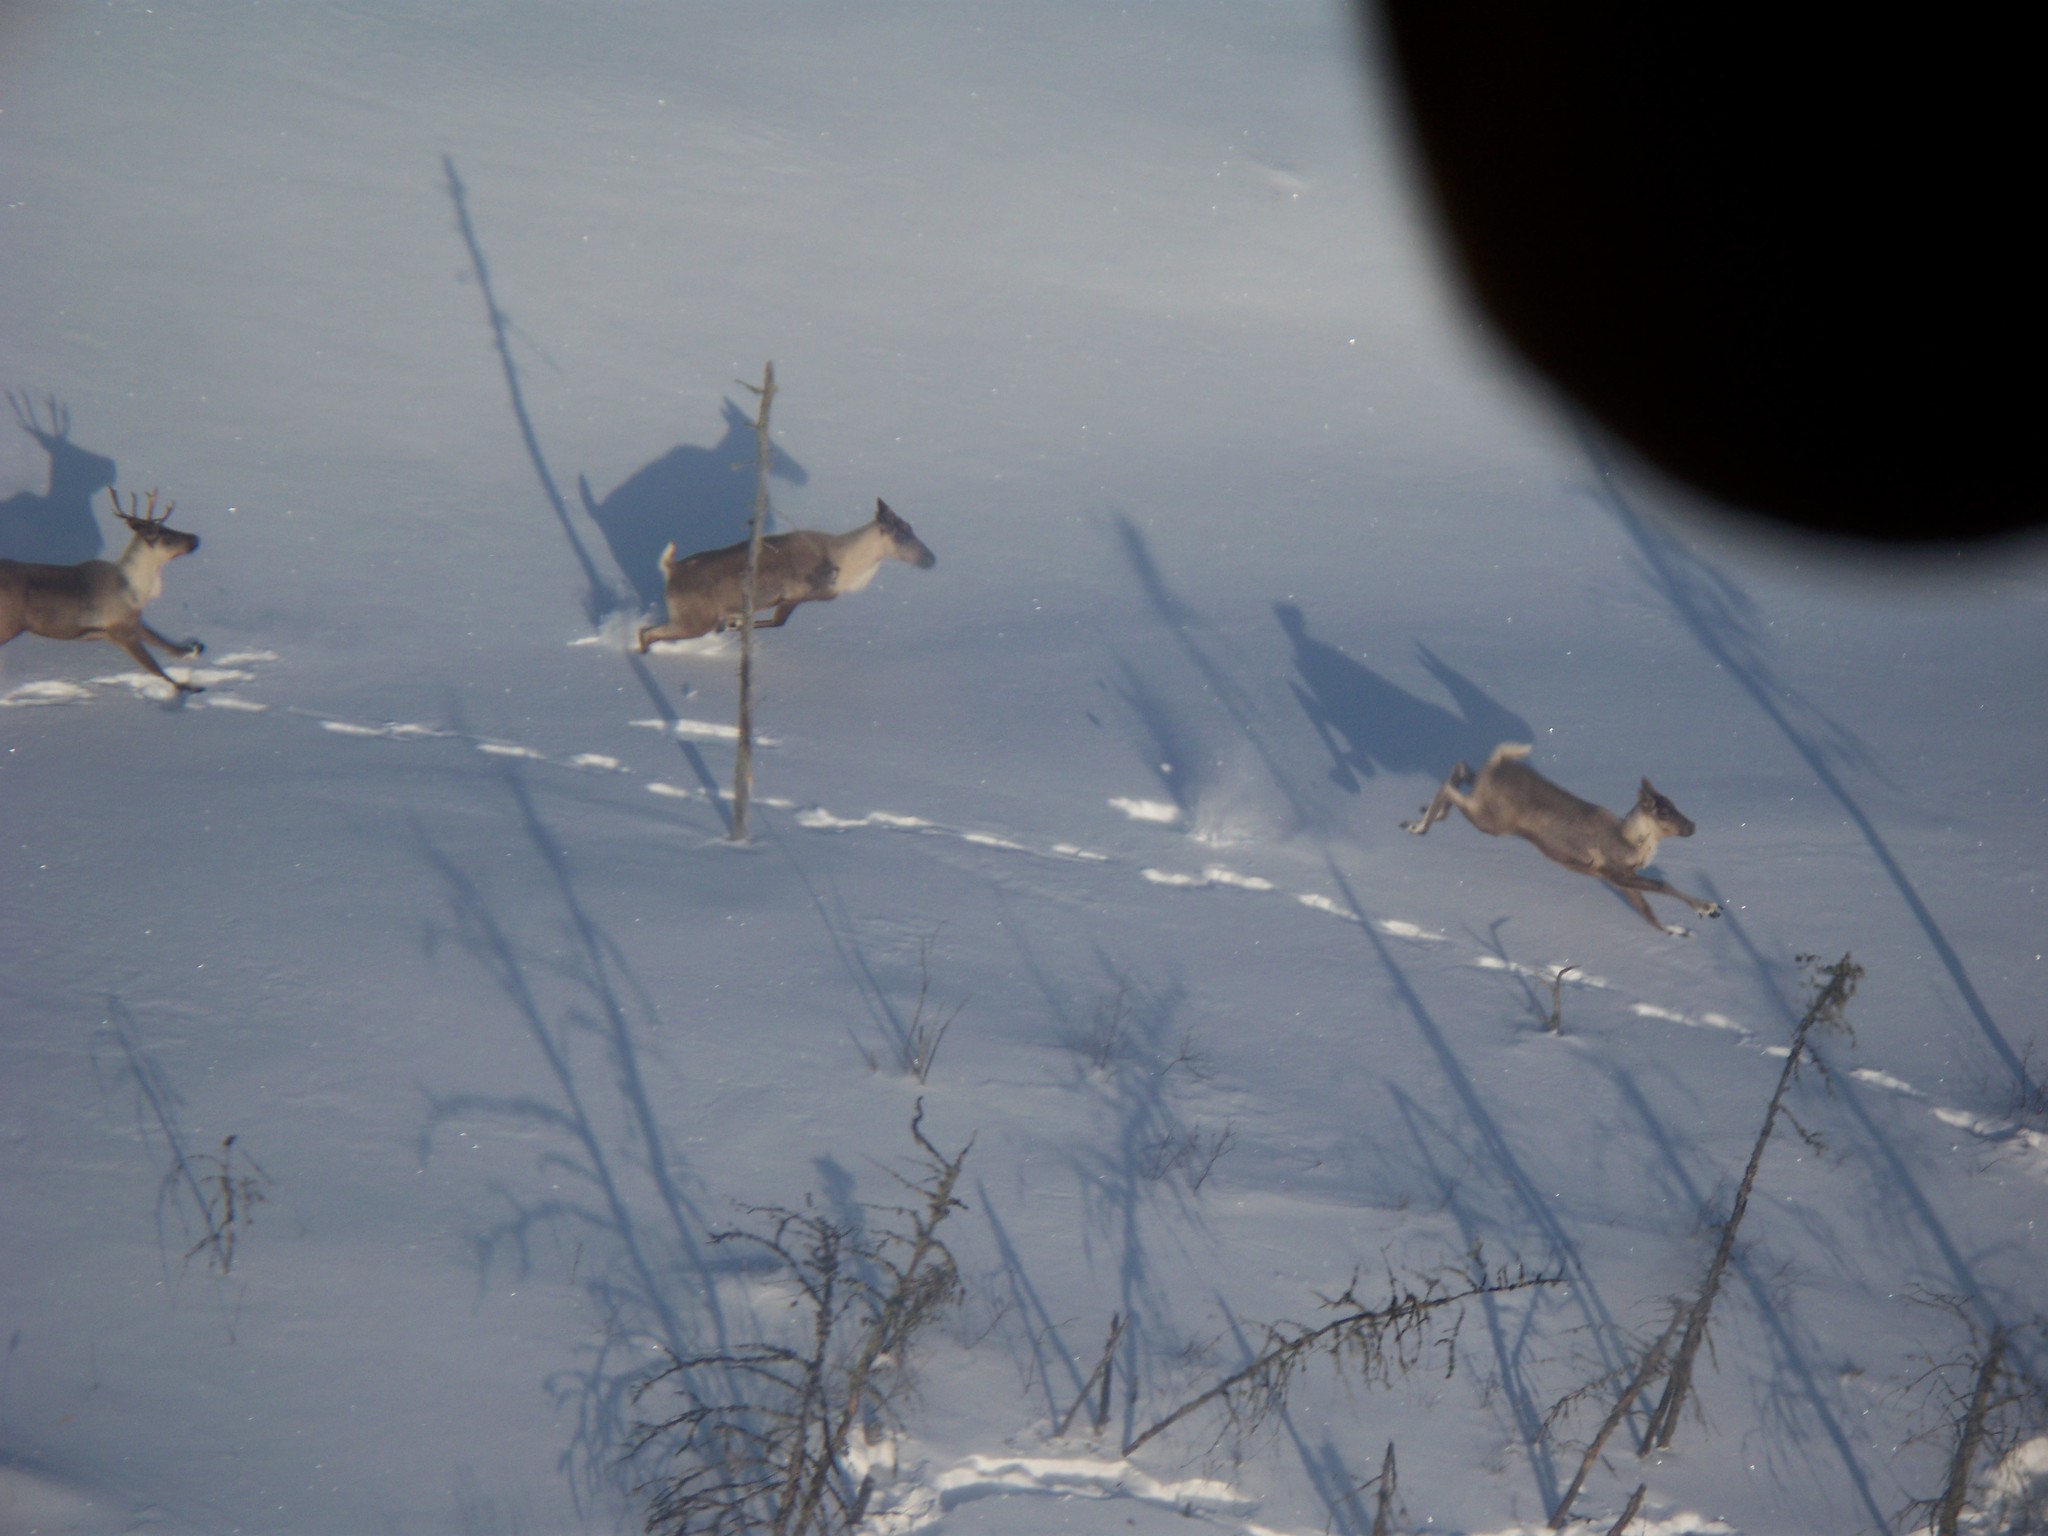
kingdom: Animalia
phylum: Chordata
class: Mammalia
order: Artiodactyla
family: Cervidae
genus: Rangifer
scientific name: Rangifer tarandus
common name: Reindeer
